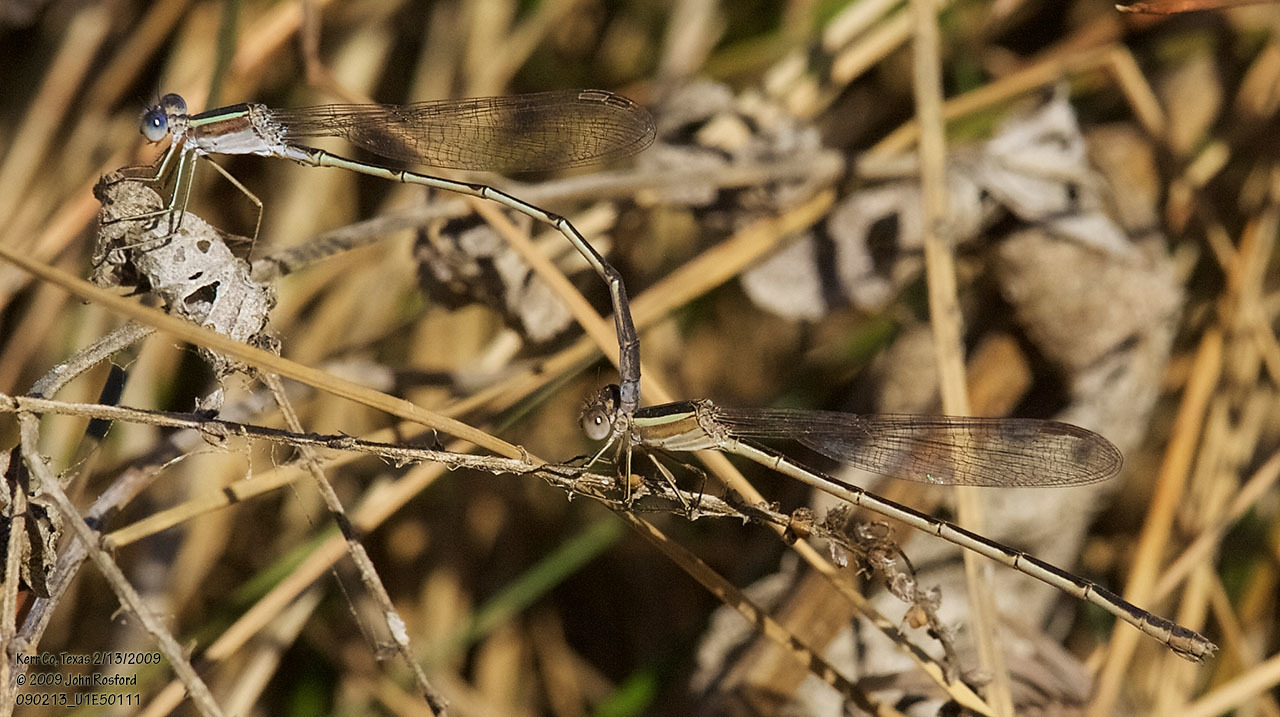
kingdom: Animalia
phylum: Arthropoda
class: Insecta
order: Odonata
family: Lestidae
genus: Lestes
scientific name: Lestes alacer
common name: Plateau spreadwing
